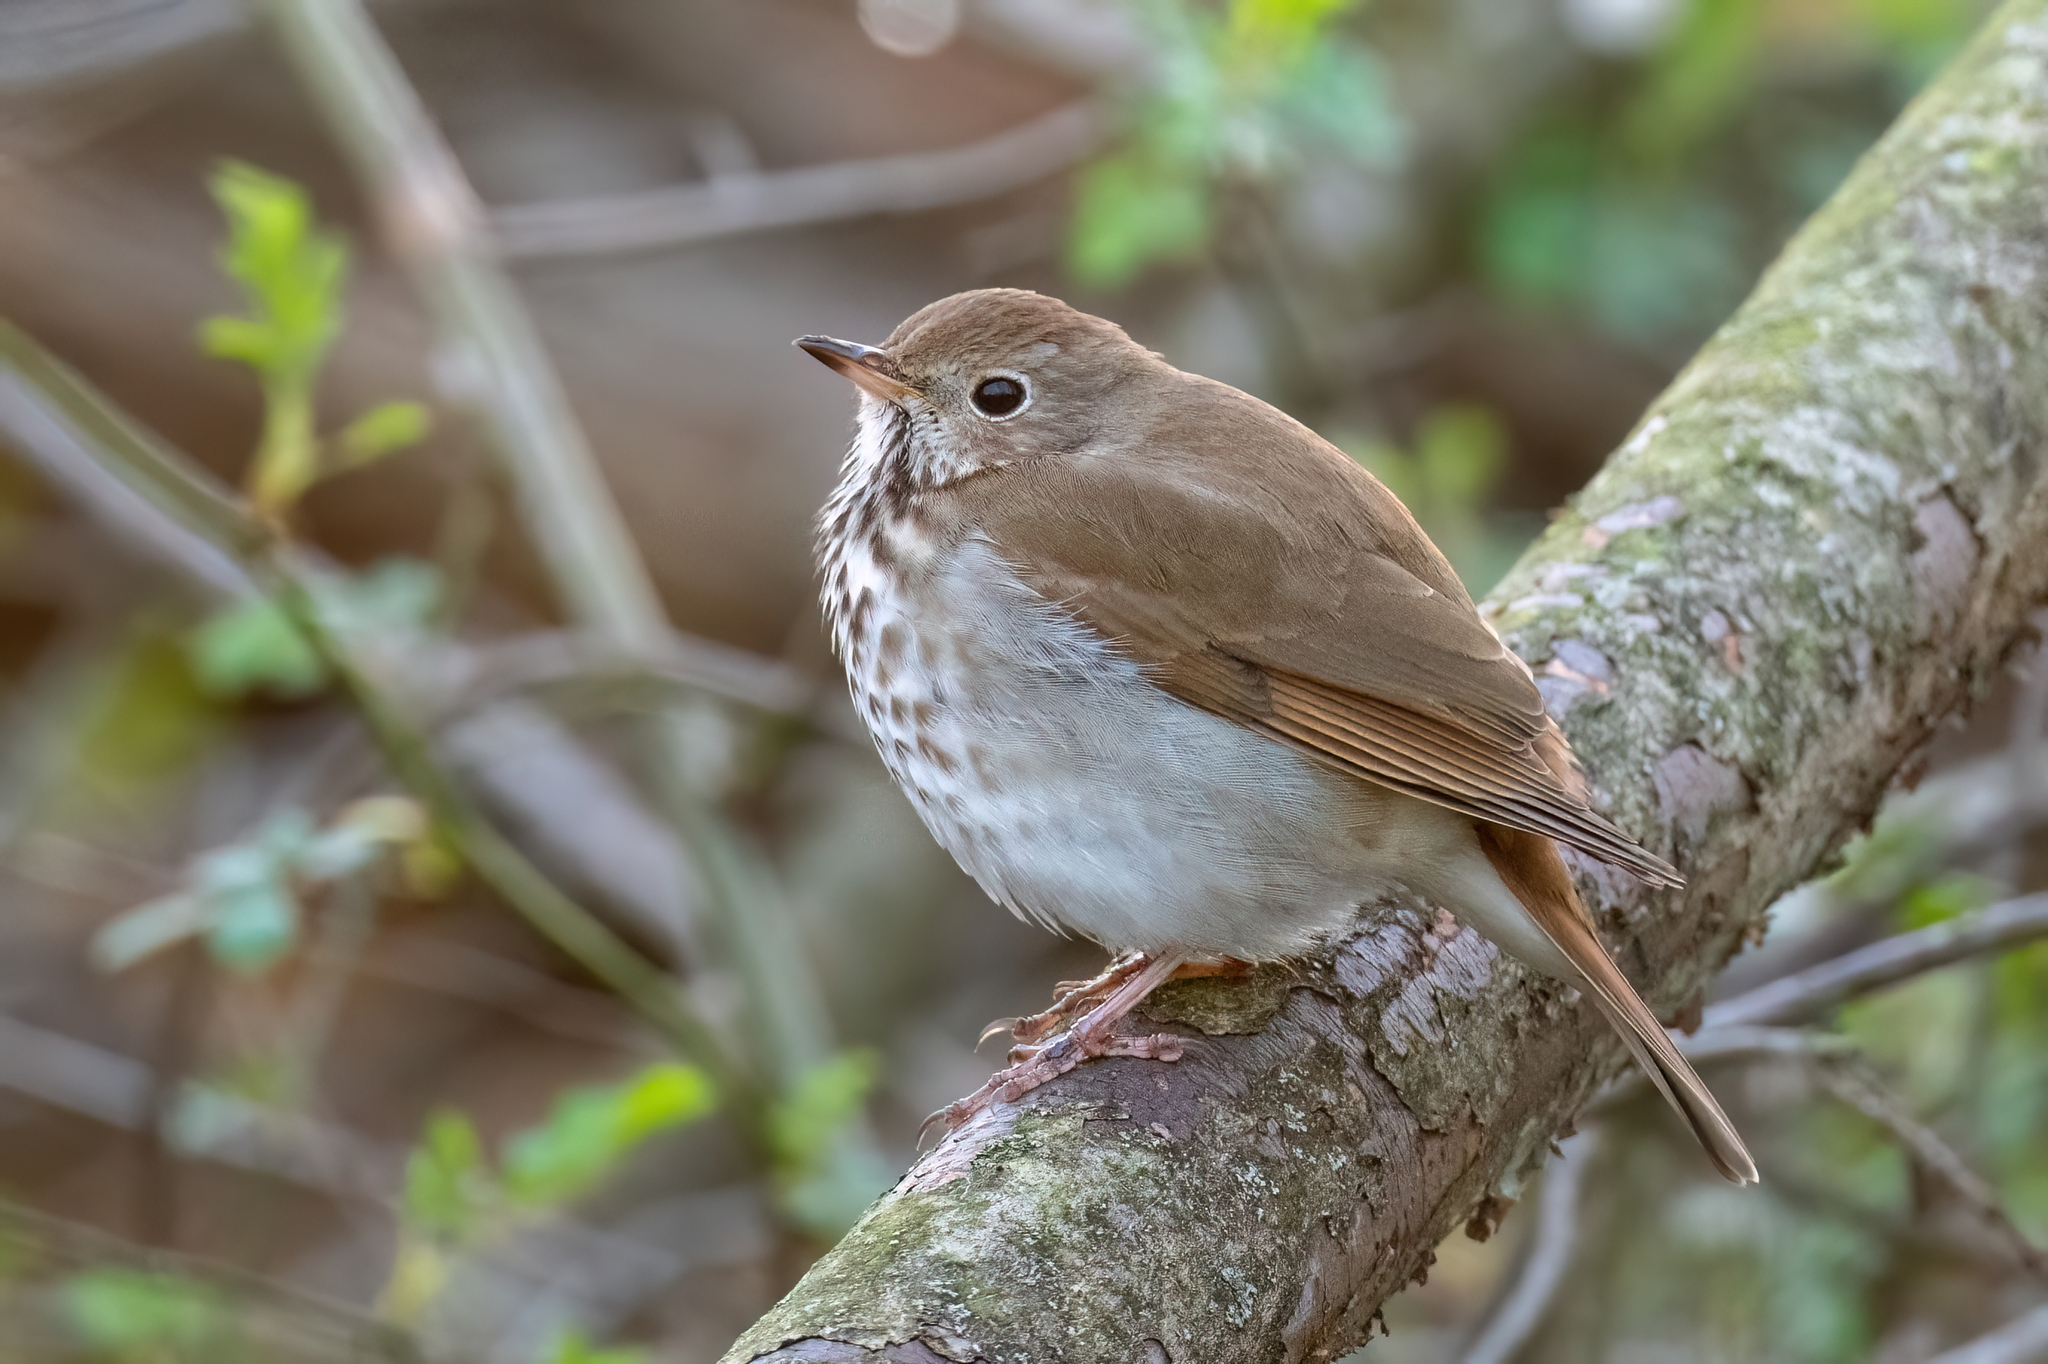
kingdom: Animalia
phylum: Chordata
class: Aves
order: Passeriformes
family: Turdidae
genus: Catharus
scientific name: Catharus guttatus
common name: Hermit thrush
